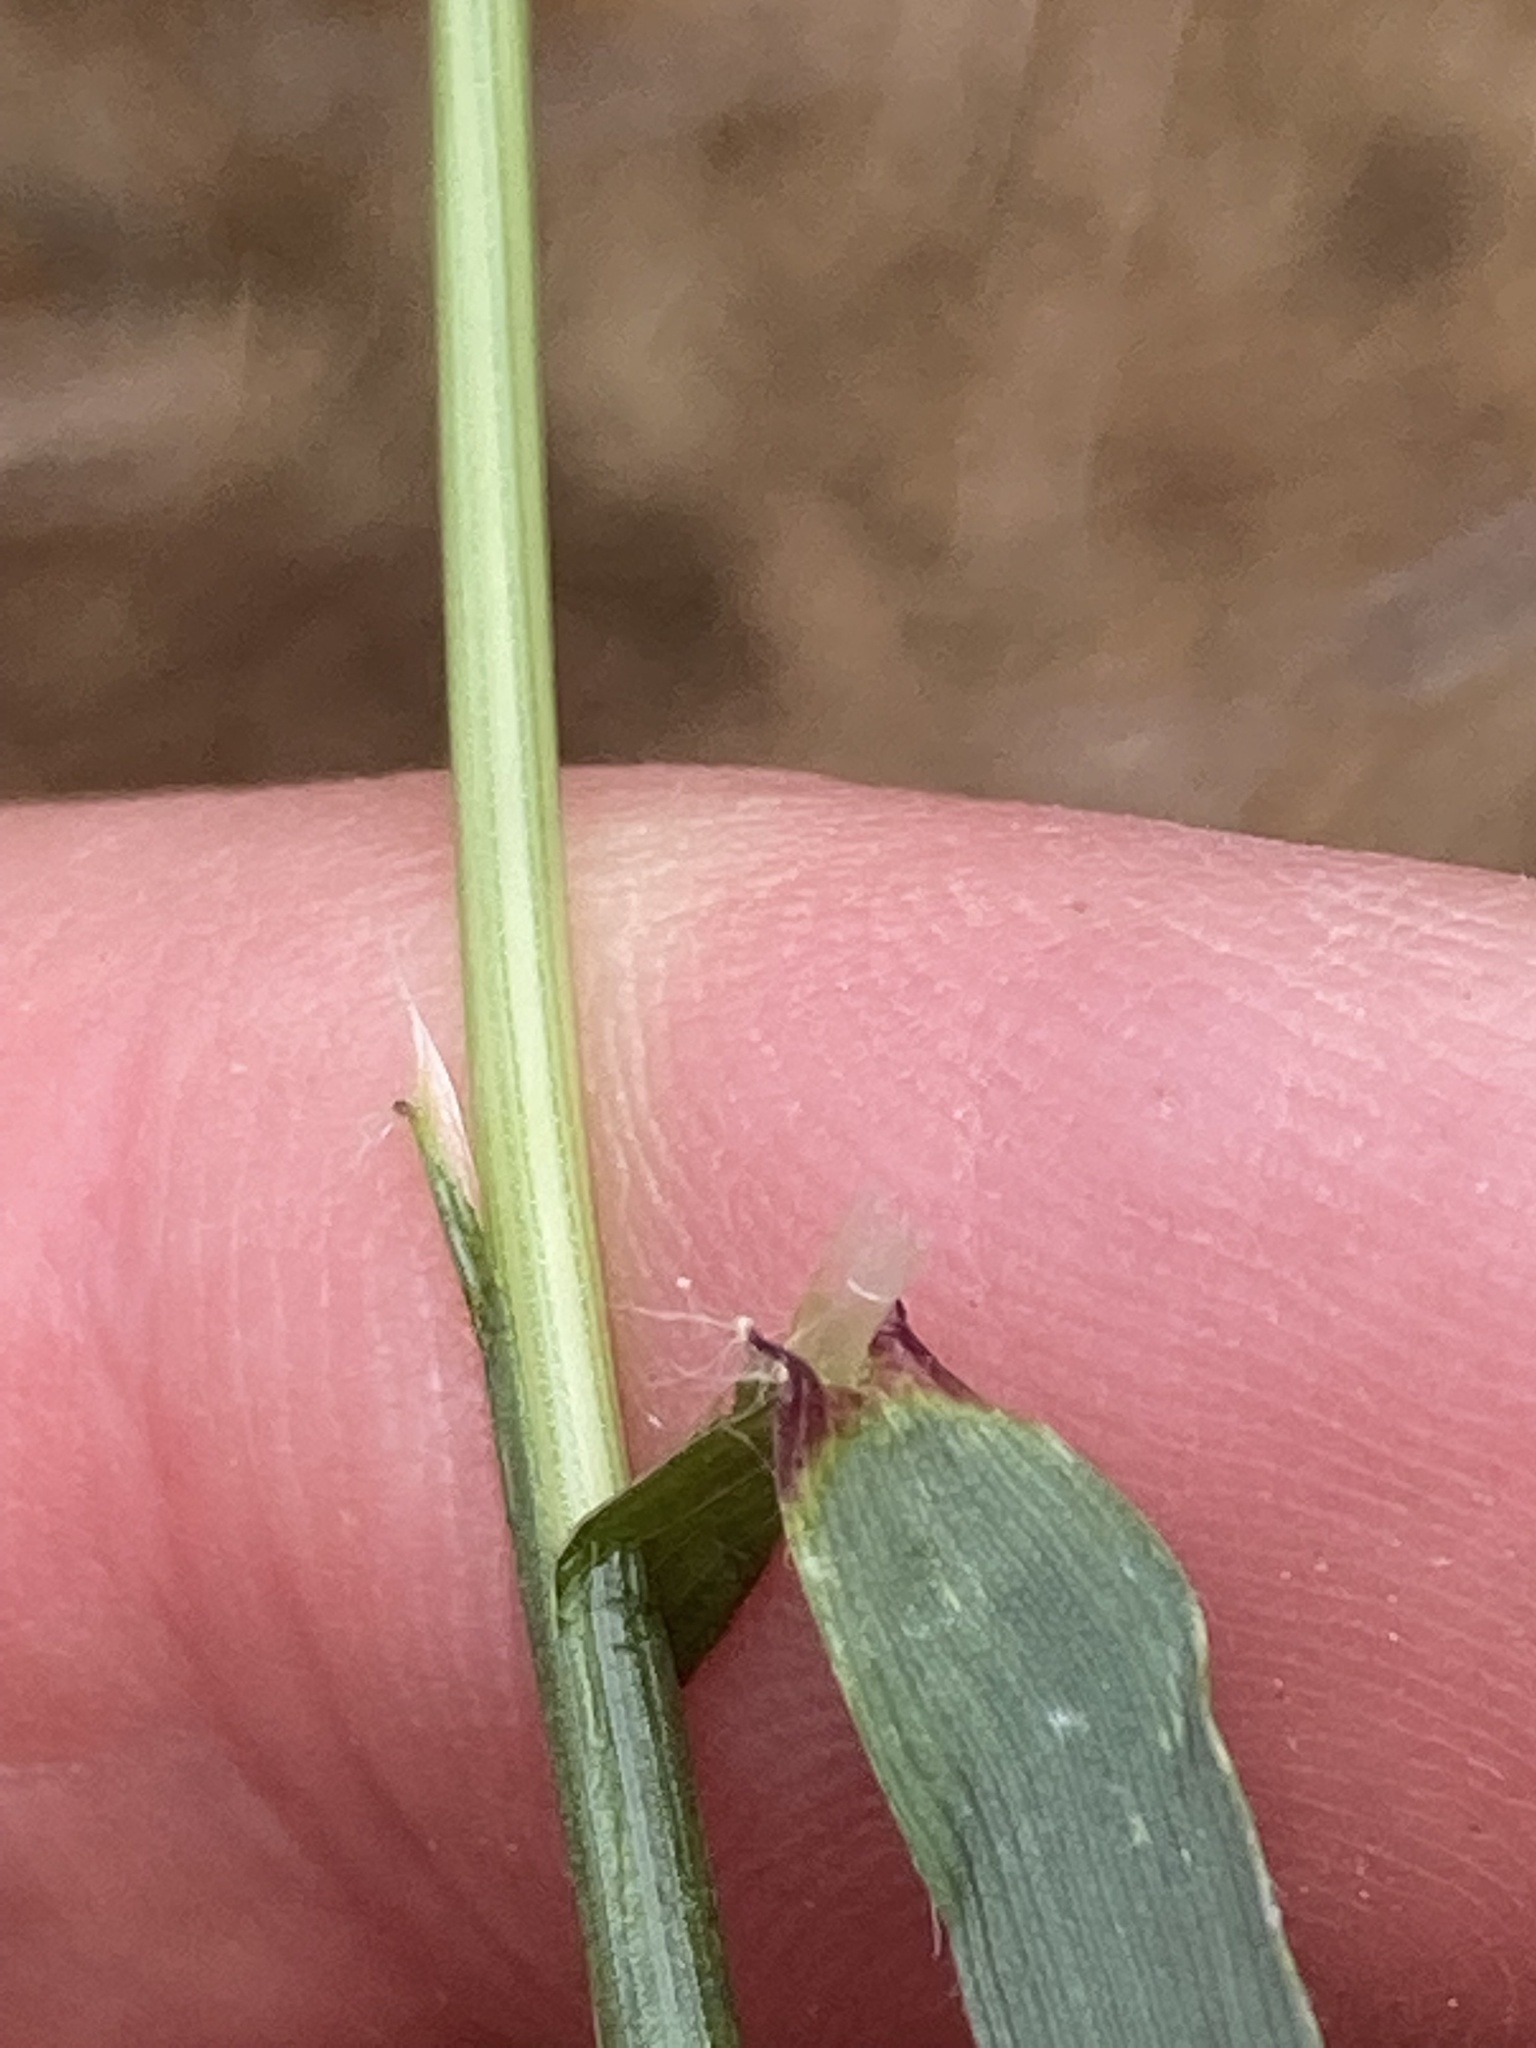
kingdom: Plantae
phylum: Tracheophyta
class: Liliopsida
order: Poales
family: Poaceae
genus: Anthoxanthum
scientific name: Anthoxanthum odoratum
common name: Sweet vernalgrass
